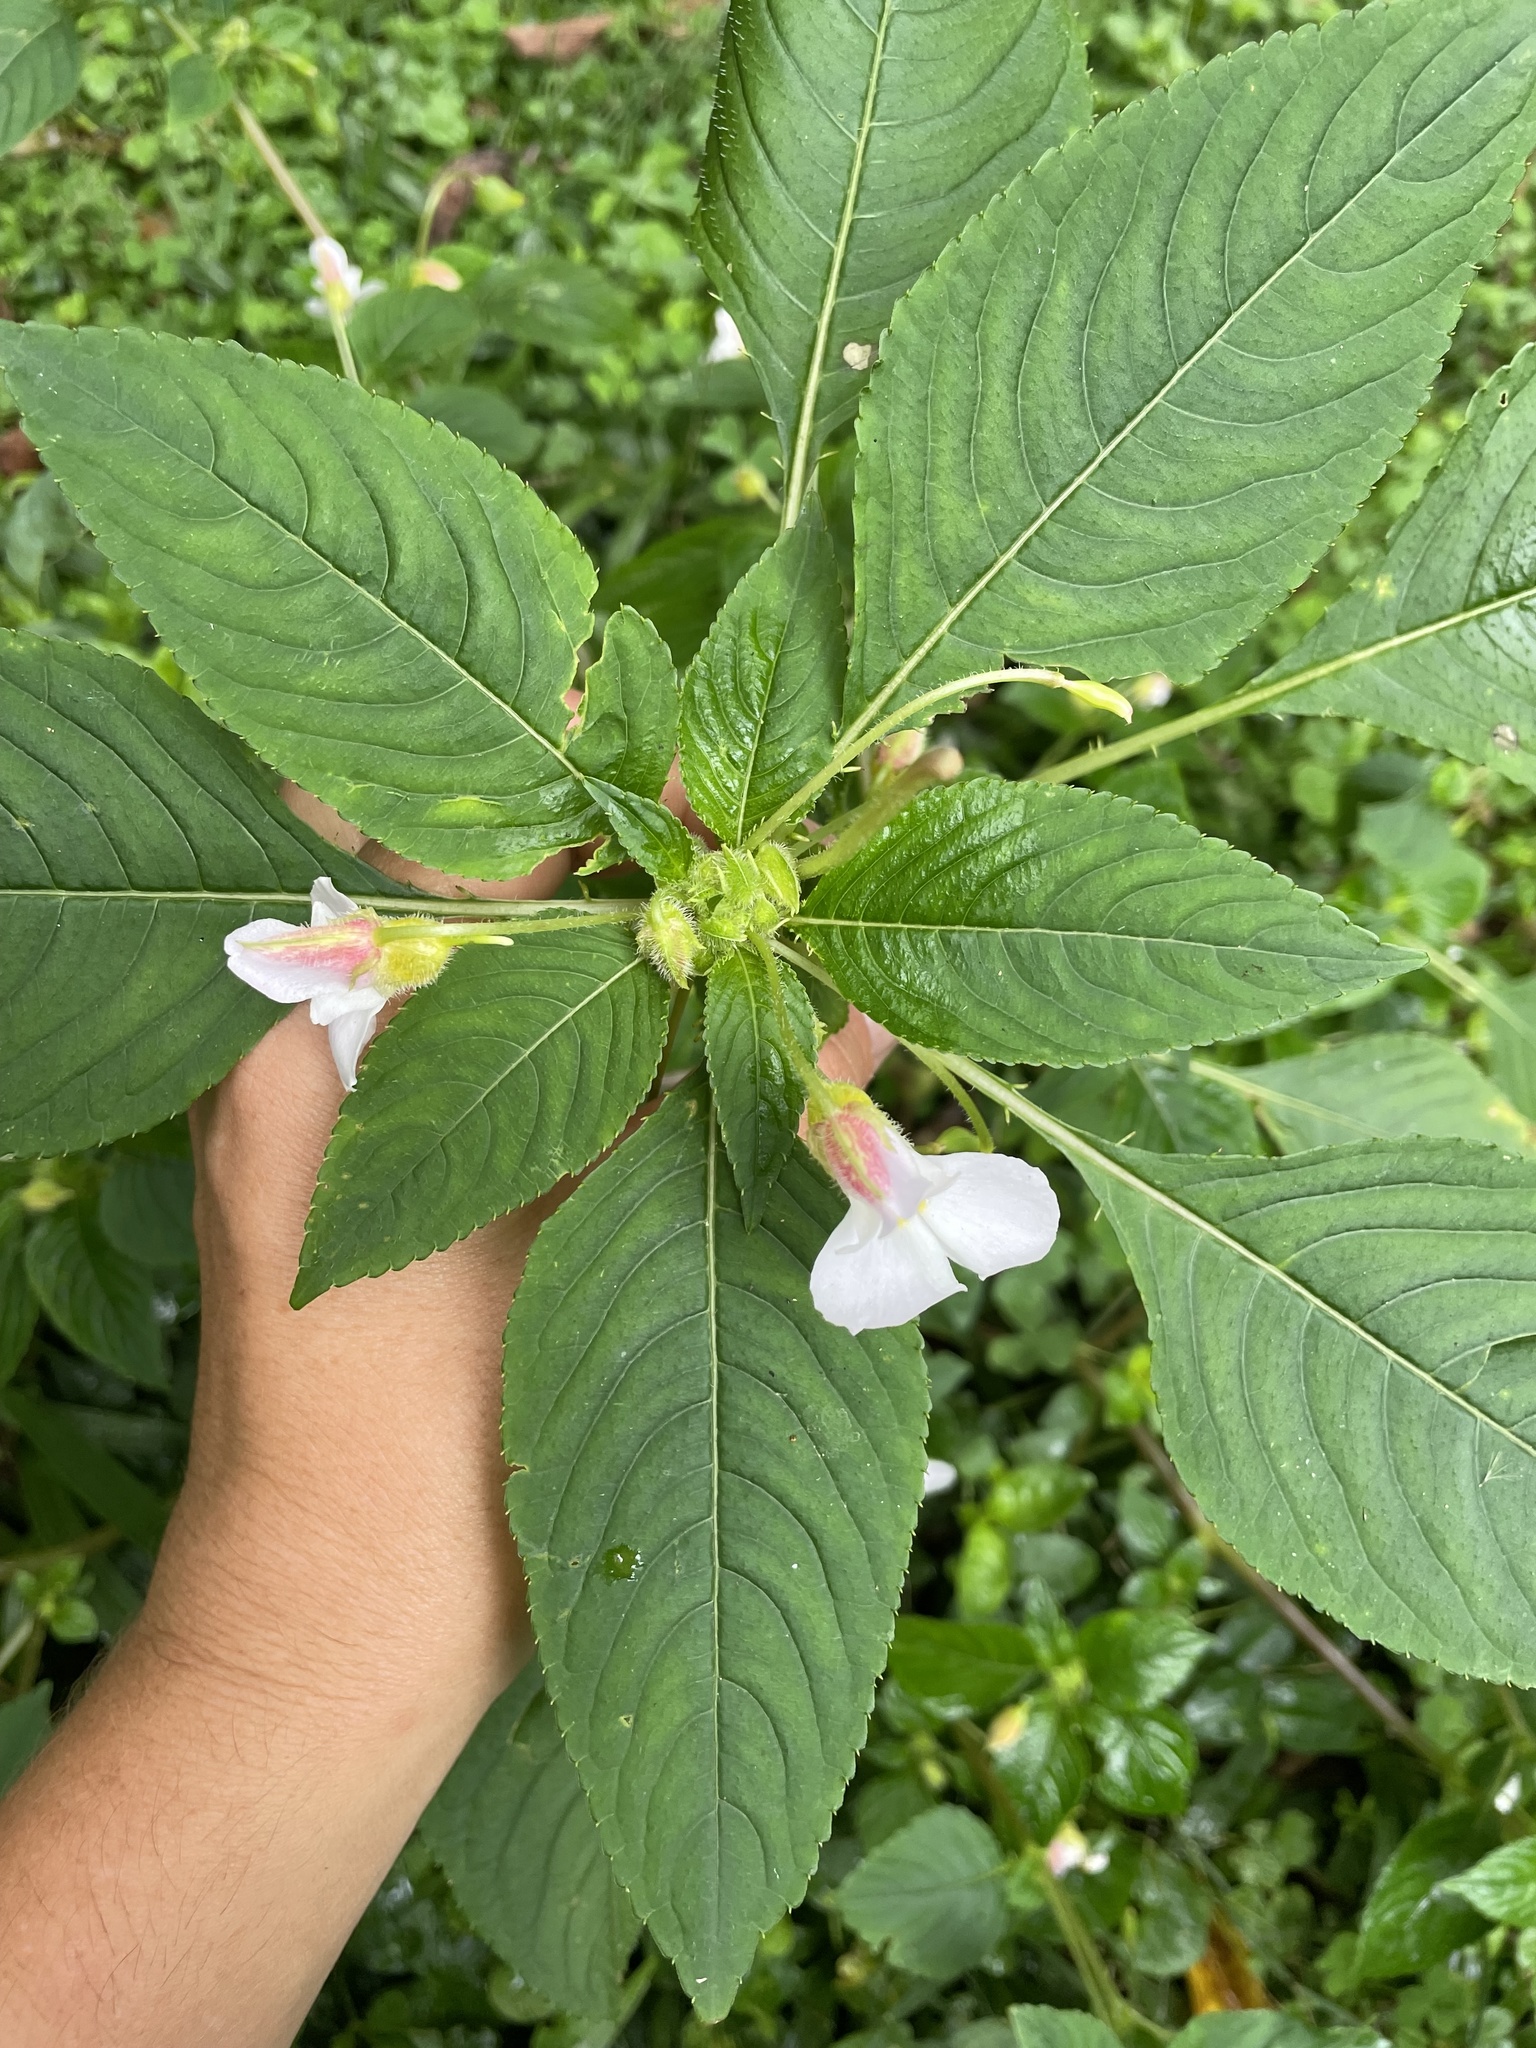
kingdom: Plantae
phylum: Tracheophyta
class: Magnoliopsida
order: Ericales
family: Balsaminaceae
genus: Impatiens
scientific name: Impatiens burtonii
